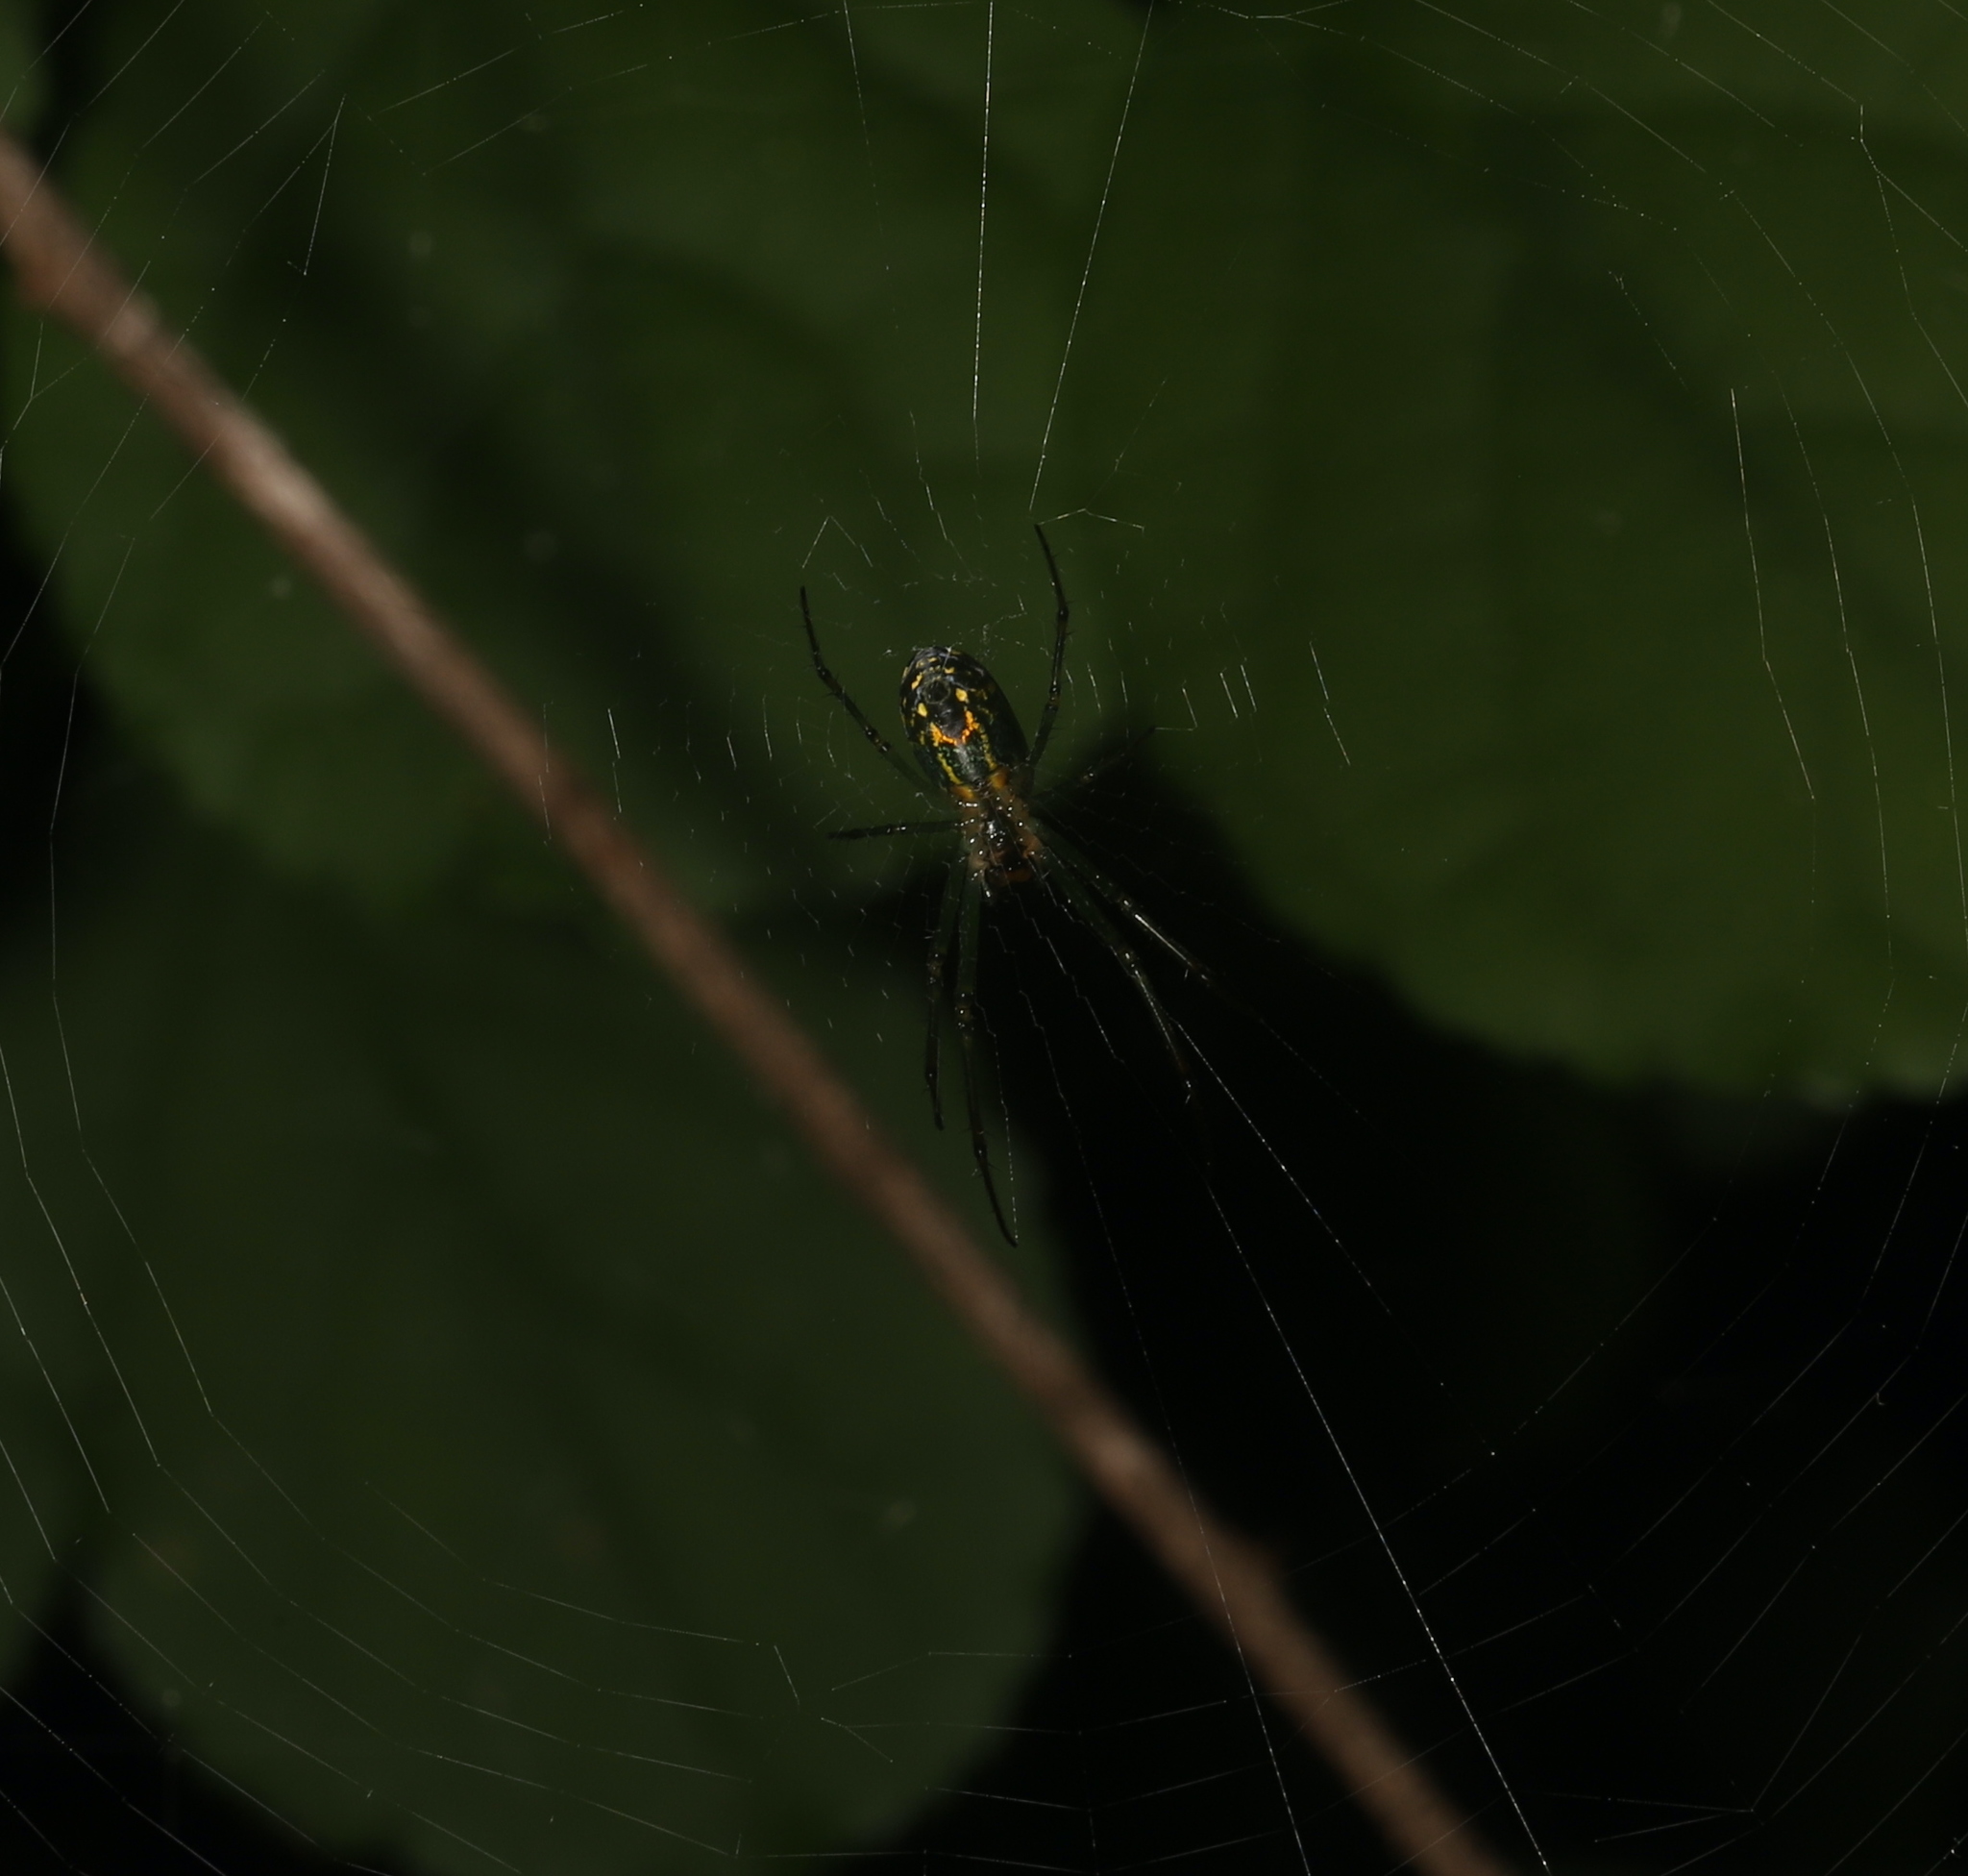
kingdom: Animalia
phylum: Arthropoda
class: Arachnida
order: Araneae
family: Tetragnathidae
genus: Leucauge
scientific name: Leucauge venusta
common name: Longjawed orb weavers
